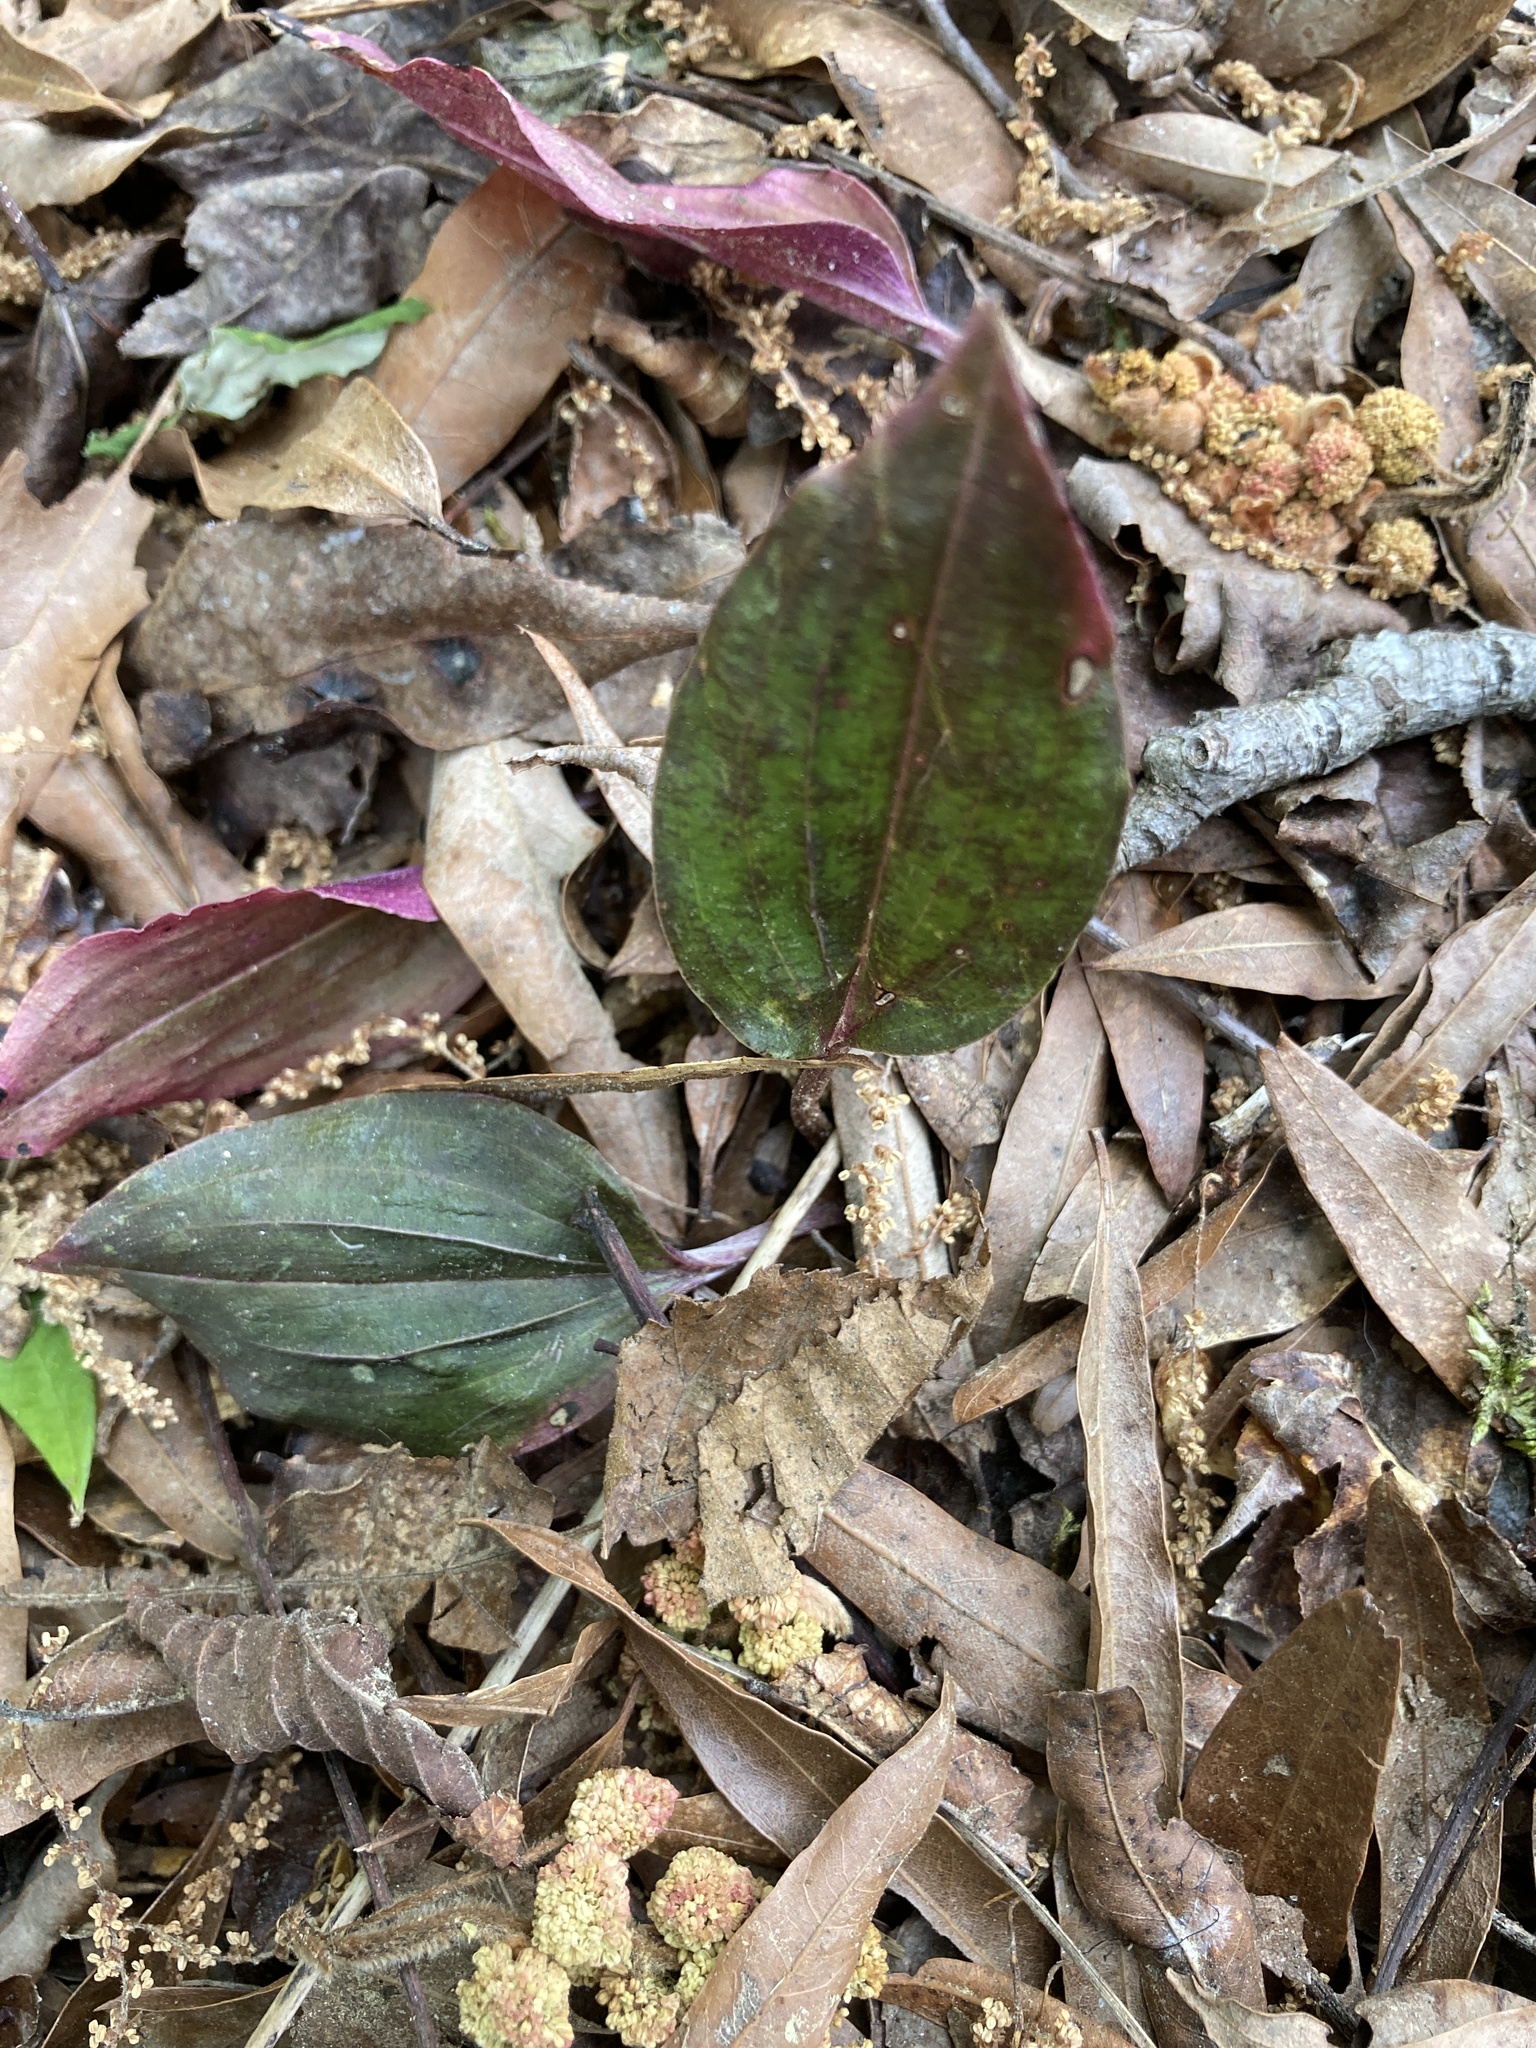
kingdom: Plantae
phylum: Tracheophyta
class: Liliopsida
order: Asparagales
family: Orchidaceae
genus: Tipularia
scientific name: Tipularia discolor
